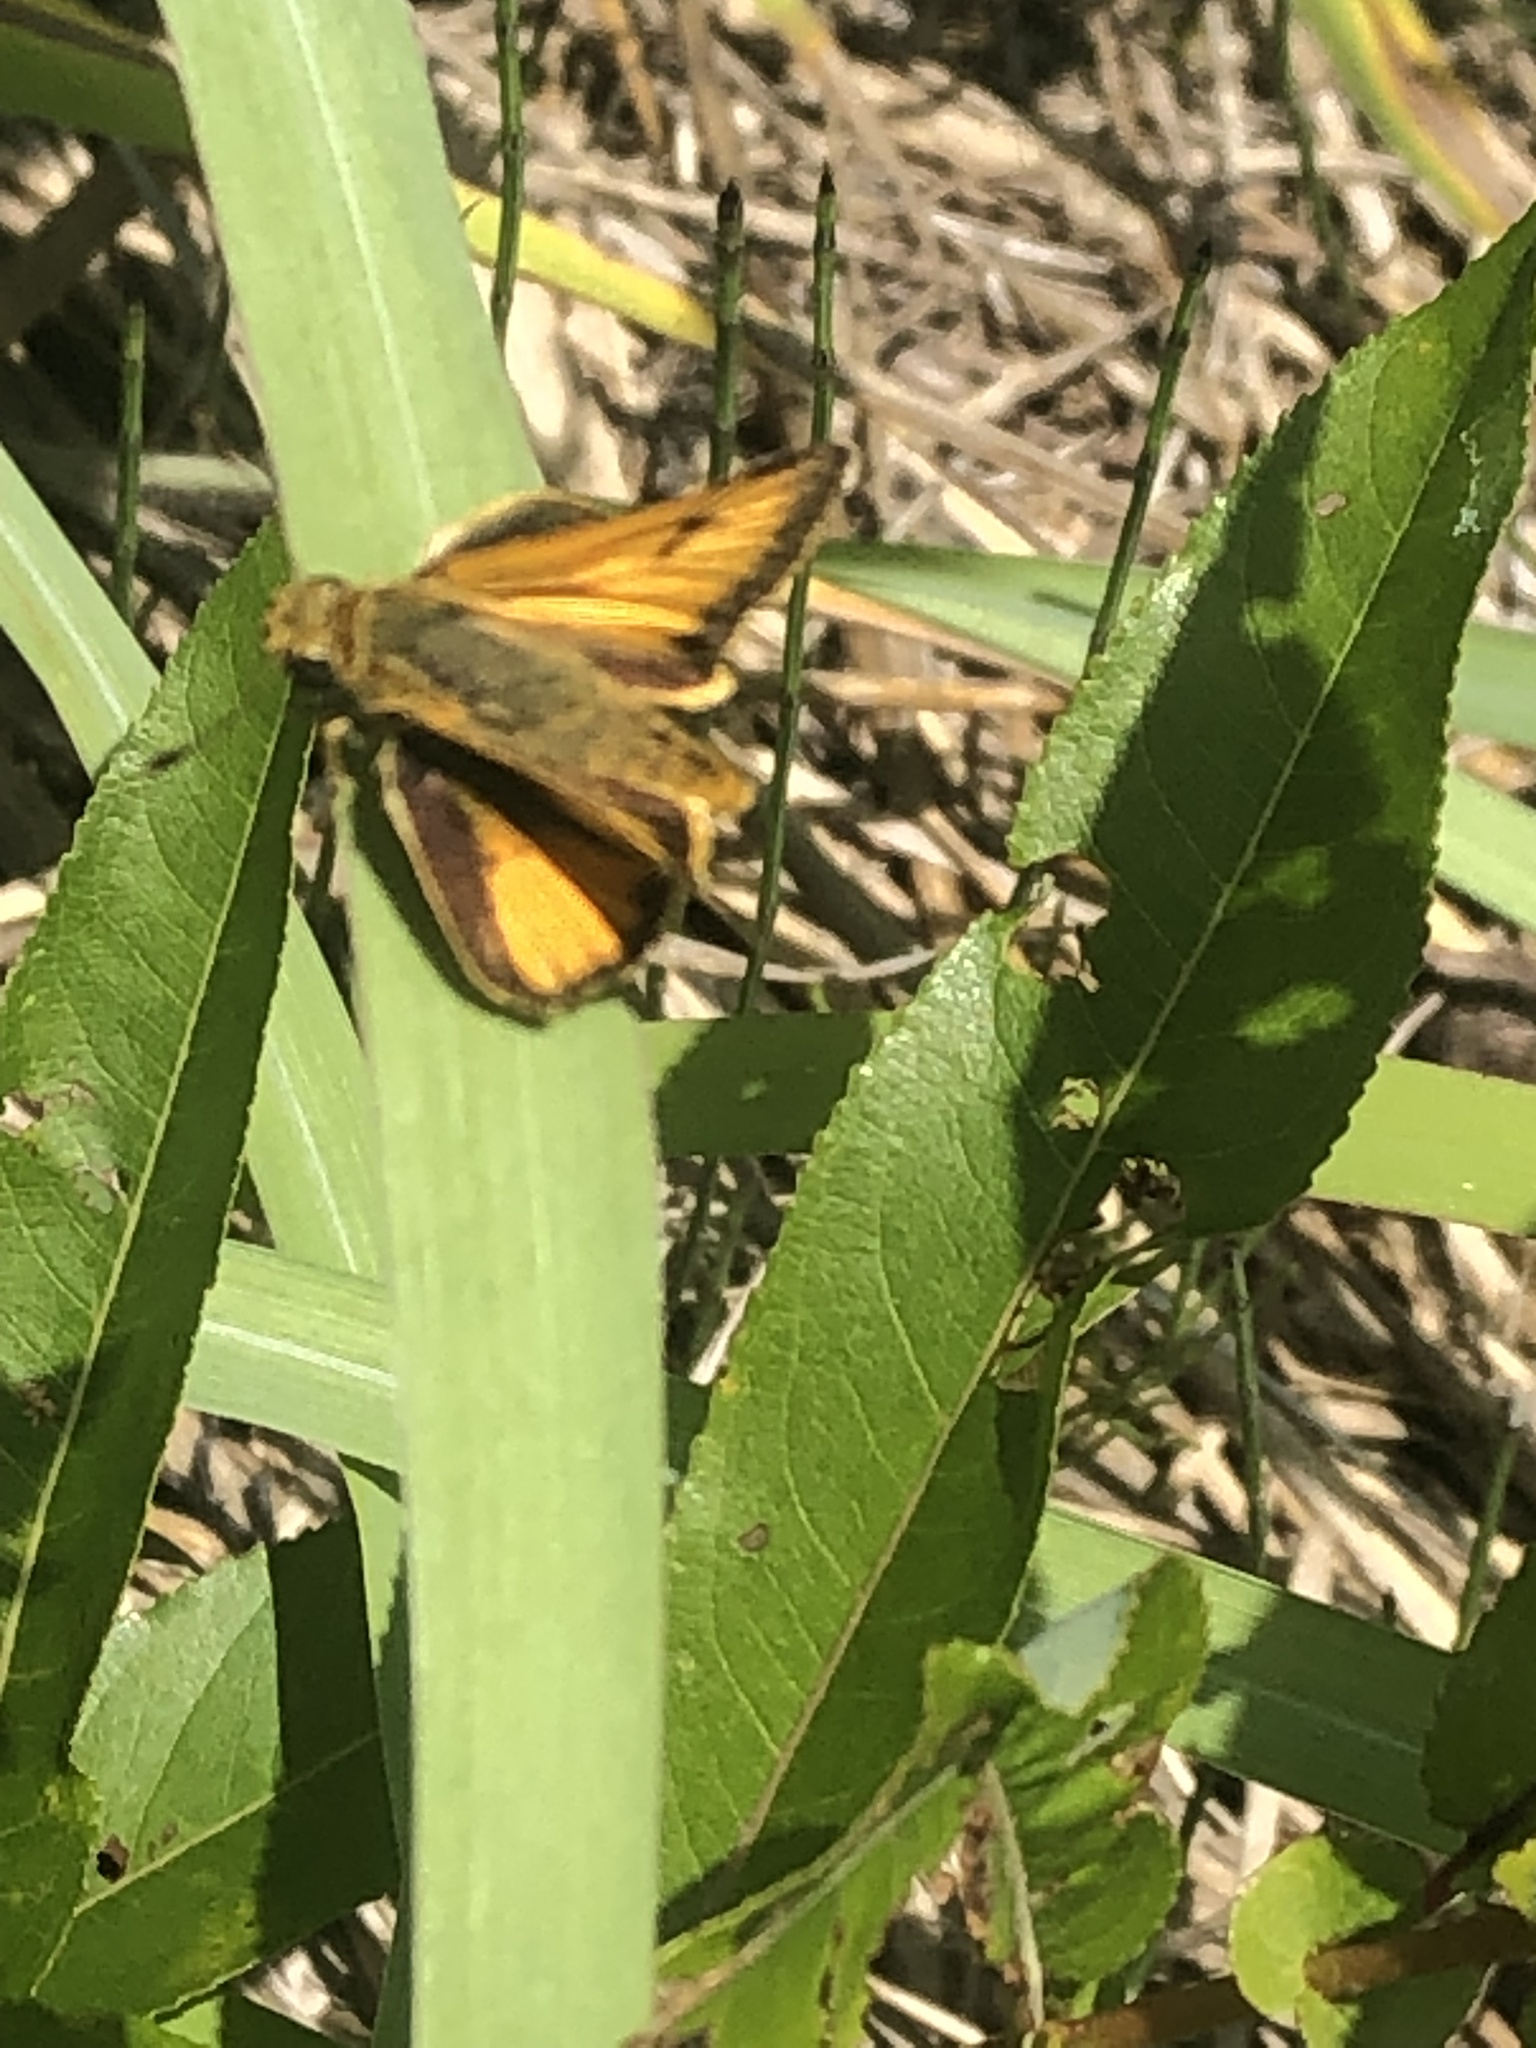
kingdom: Animalia
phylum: Arthropoda
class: Insecta
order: Lepidoptera
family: Hesperiidae
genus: Atrytone
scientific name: Atrytone delaware
